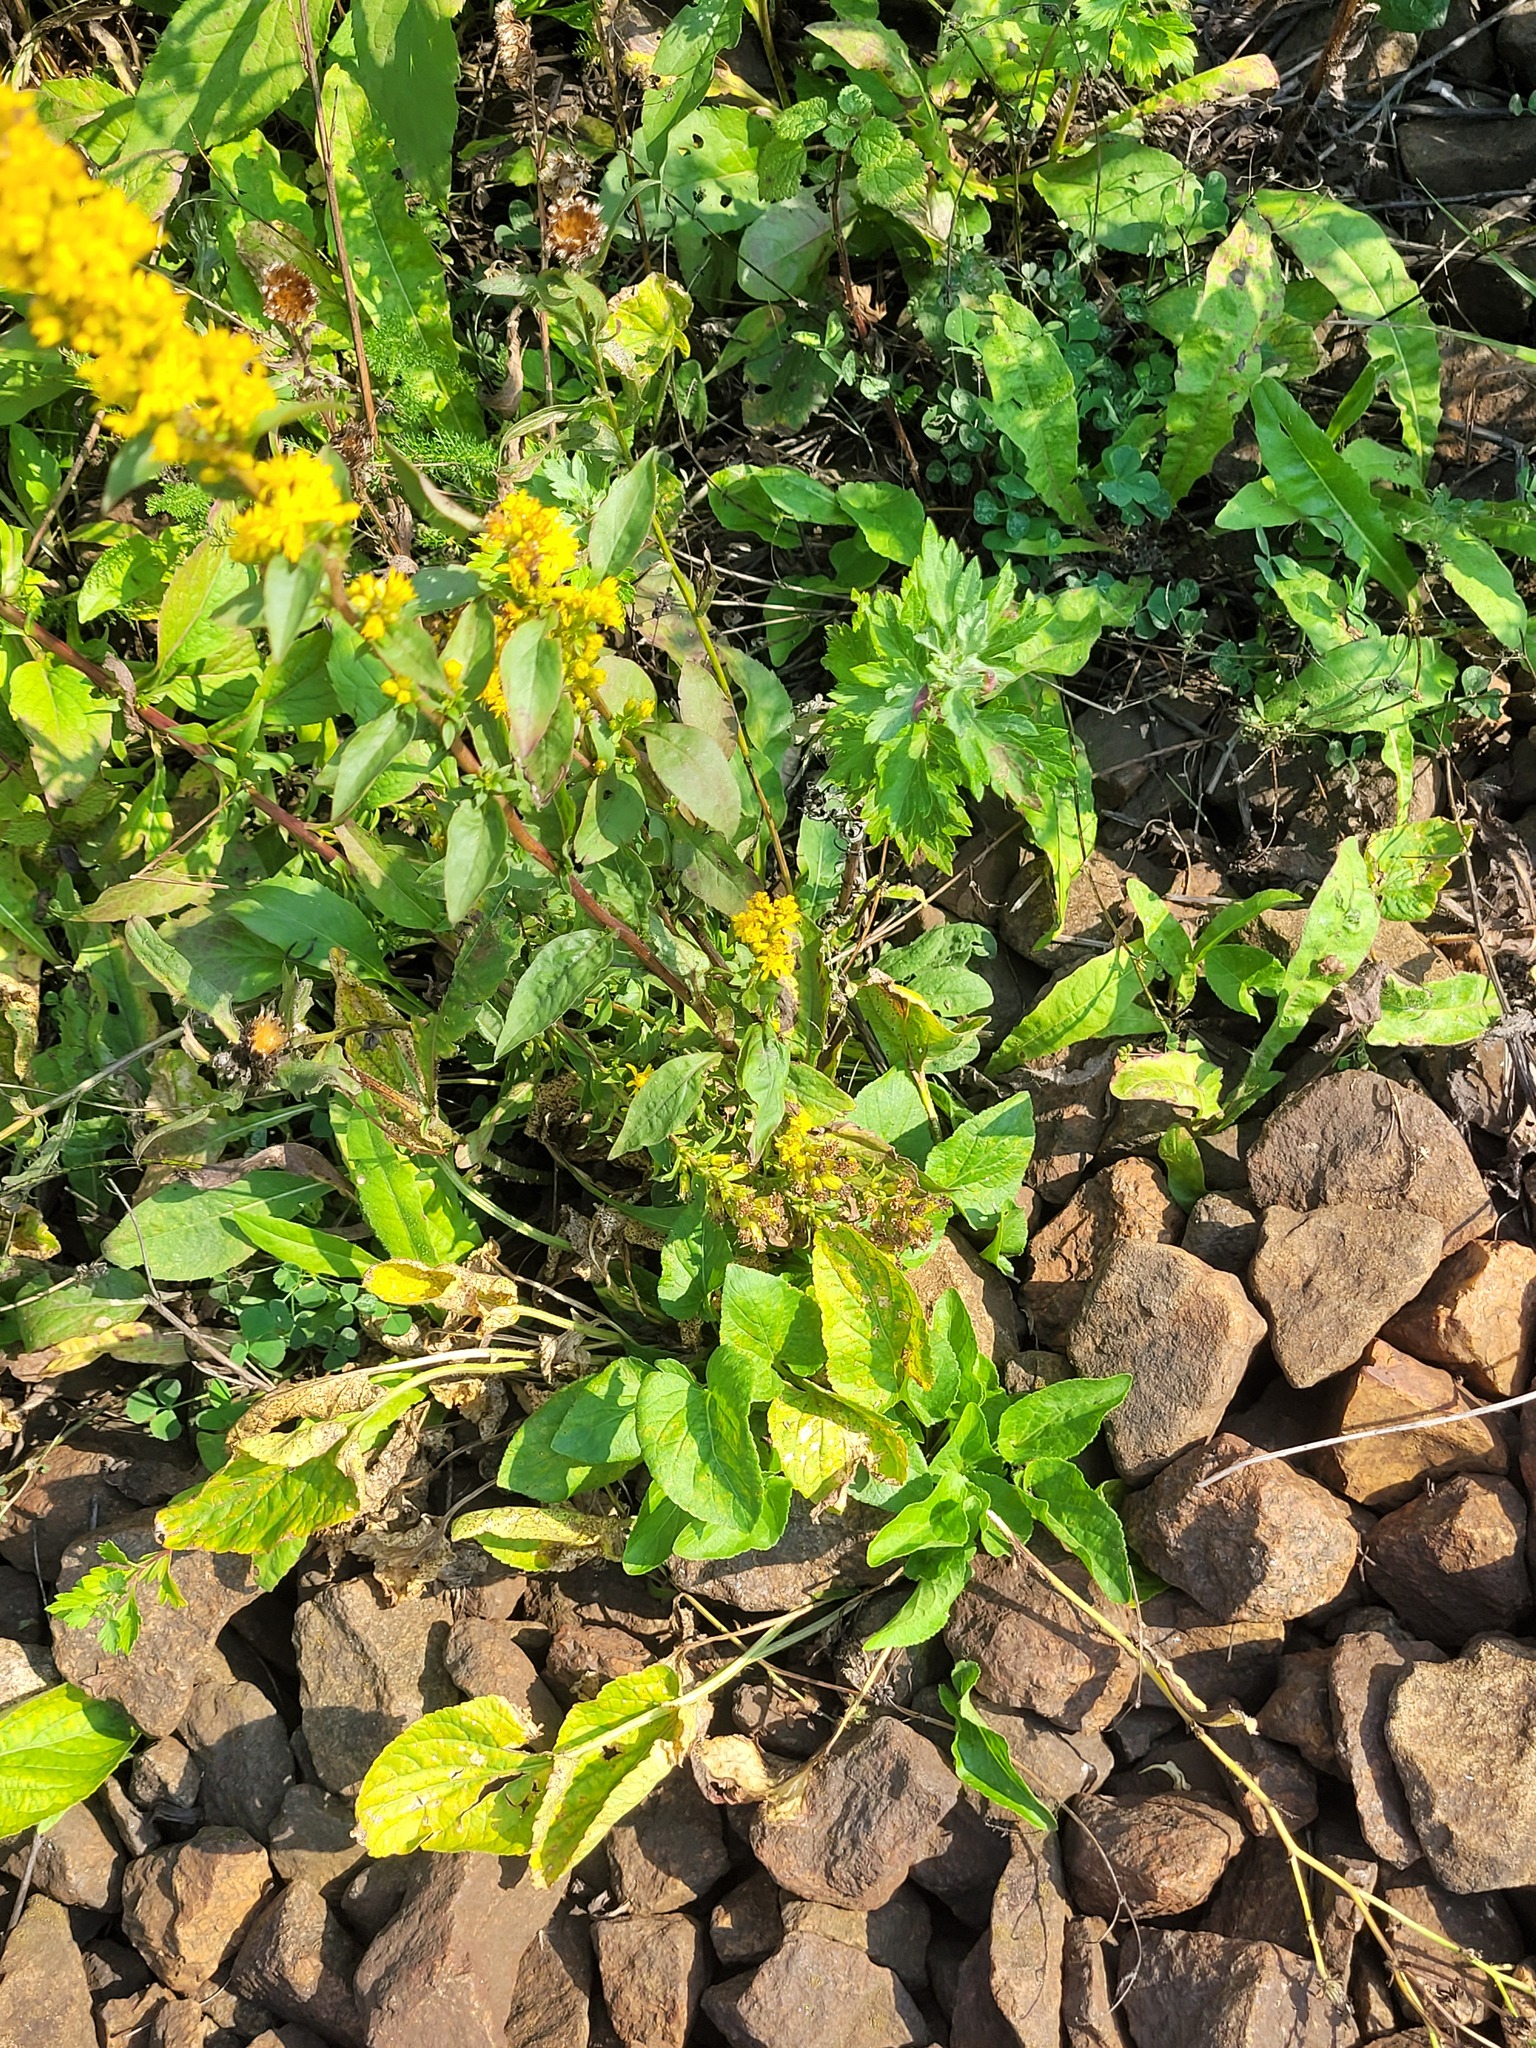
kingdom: Plantae
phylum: Tracheophyta
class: Magnoliopsida
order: Asterales
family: Asteraceae
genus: Solidago
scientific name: Solidago virgaurea
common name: Goldenrod
